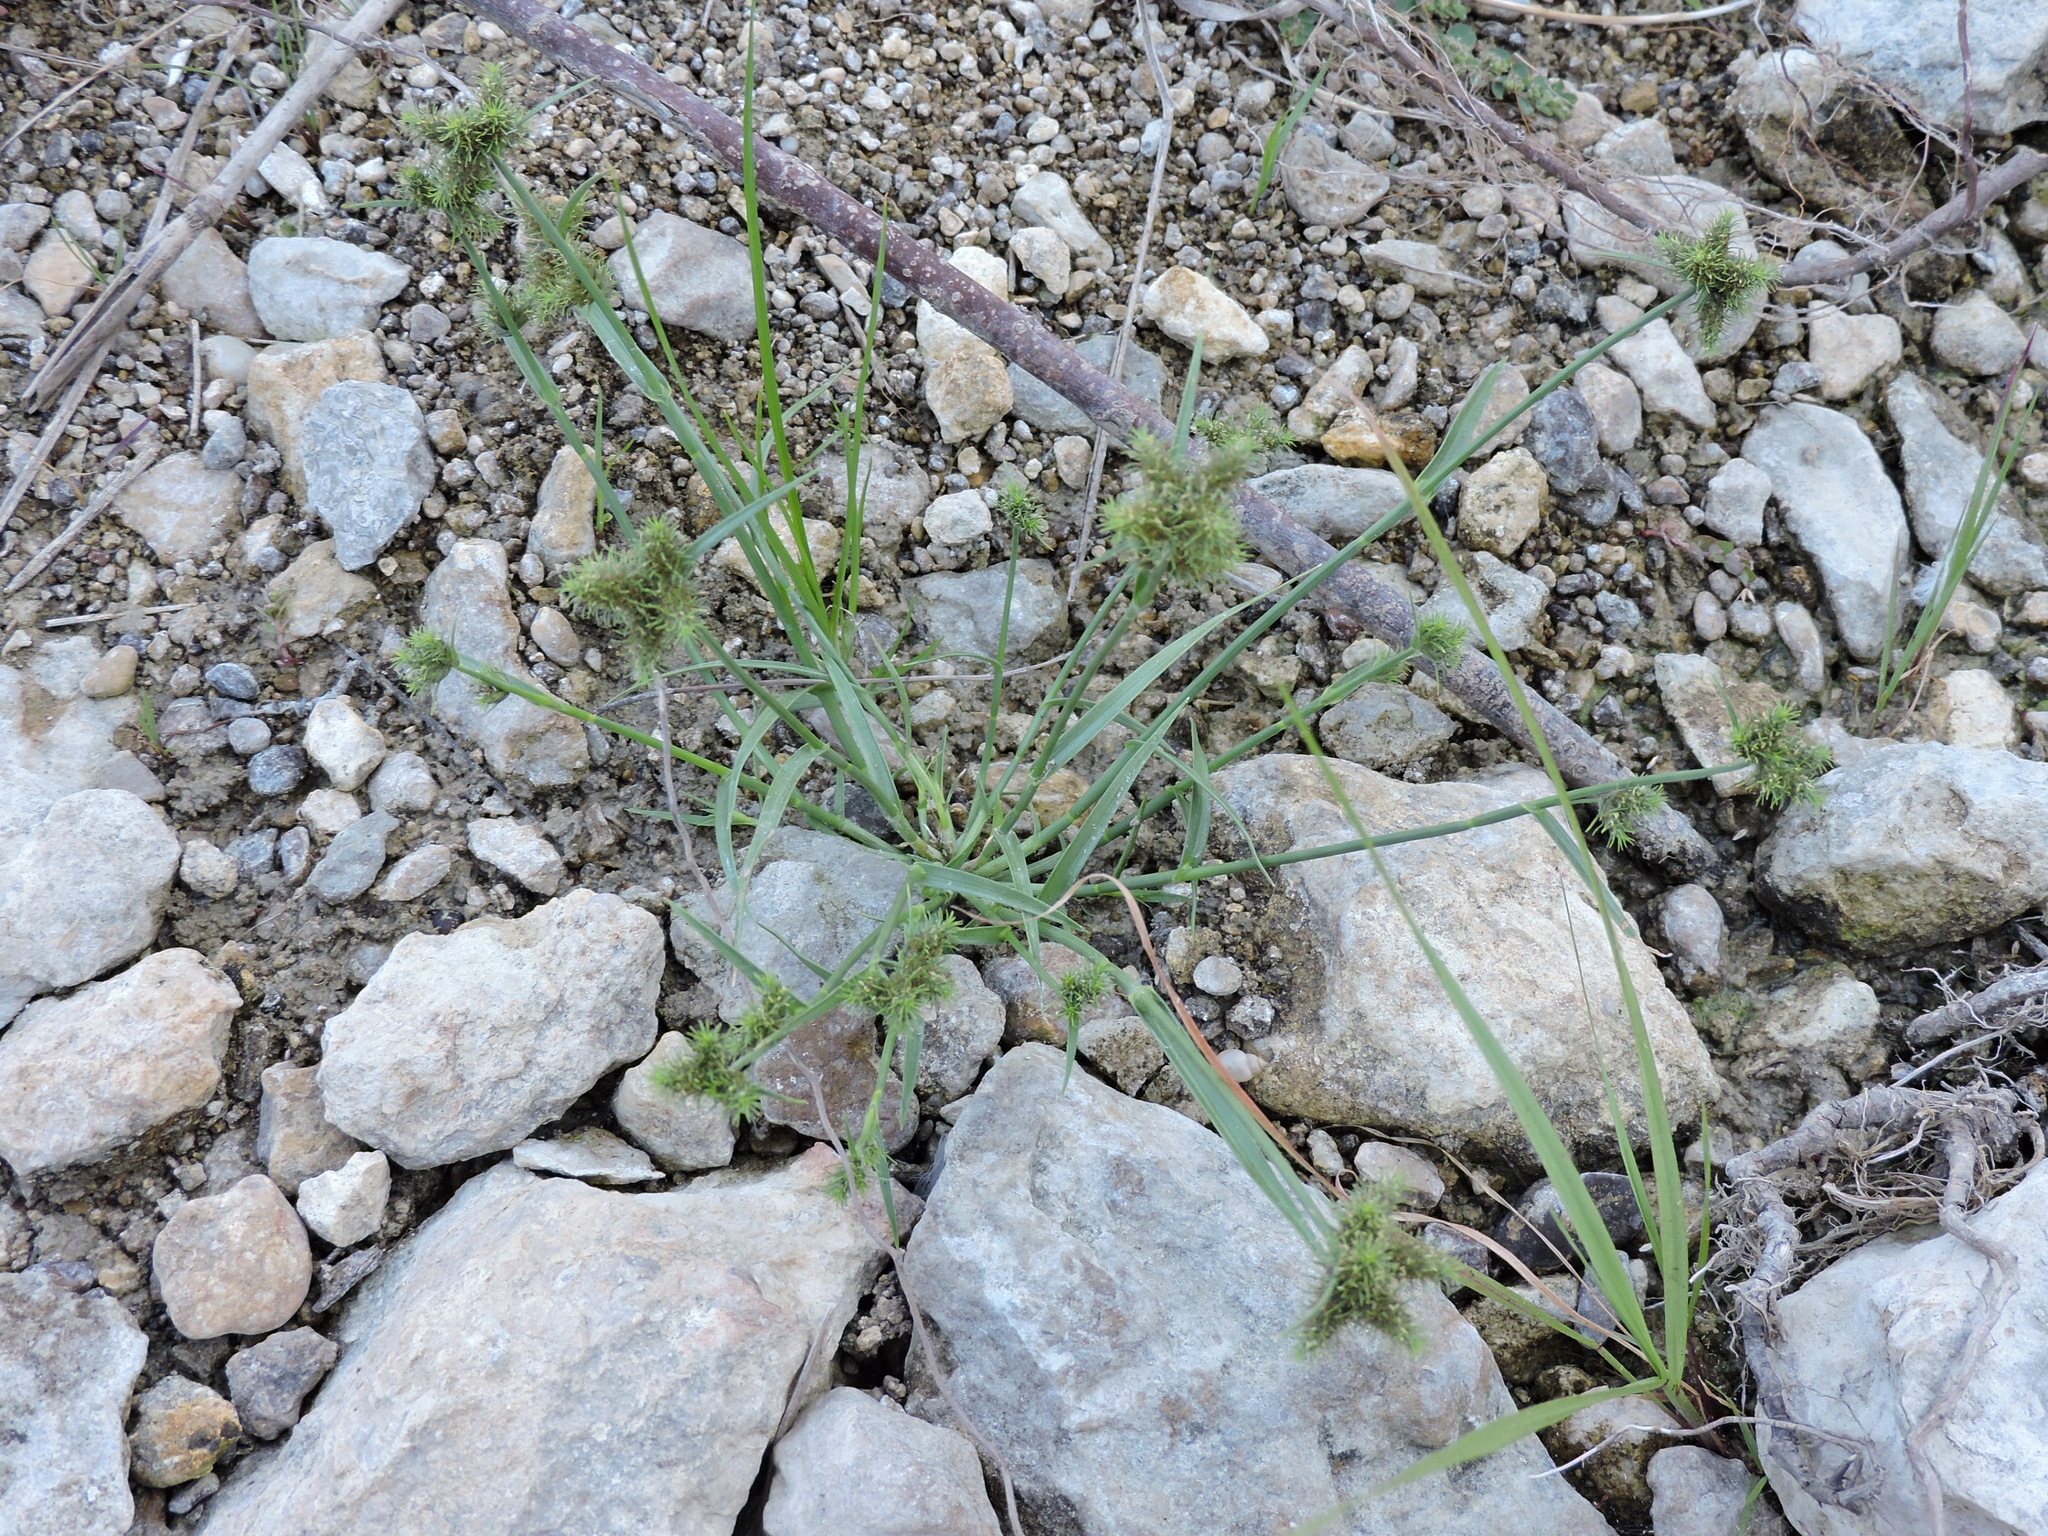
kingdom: Plantae
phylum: Tracheophyta
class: Liliopsida
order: Poales
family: Cyperaceae
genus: Fuirena
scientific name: Fuirena simplex
